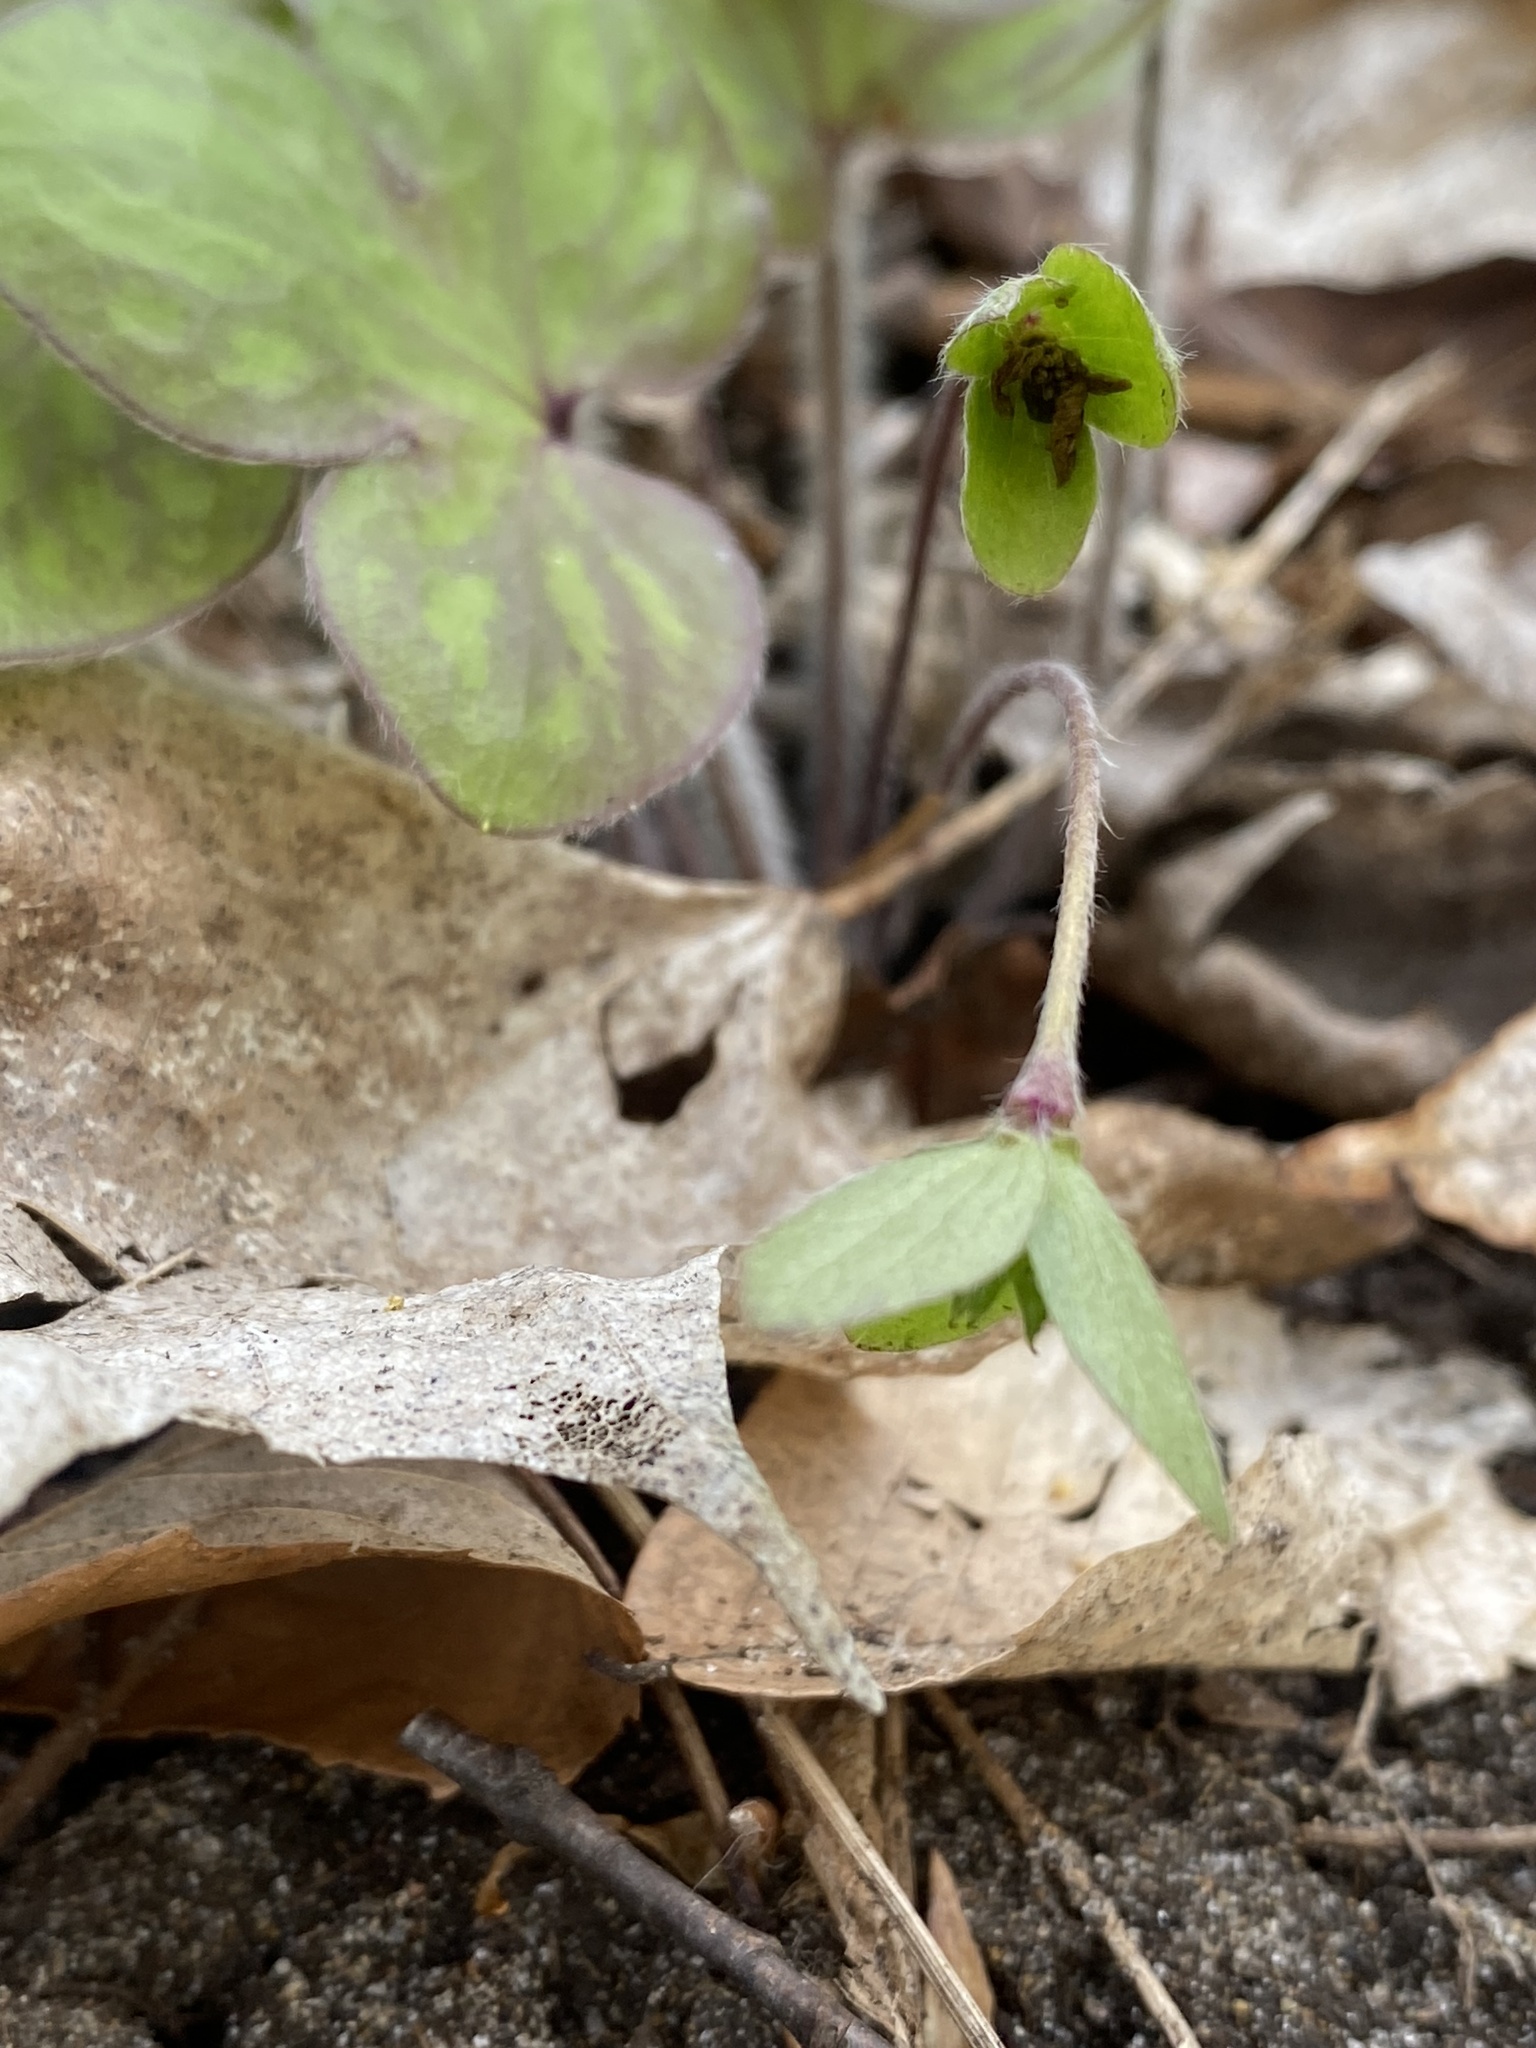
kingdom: Plantae
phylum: Tracheophyta
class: Magnoliopsida
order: Ranunculales
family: Ranunculaceae
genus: Hepatica
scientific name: Hepatica americana
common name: American hepatica
